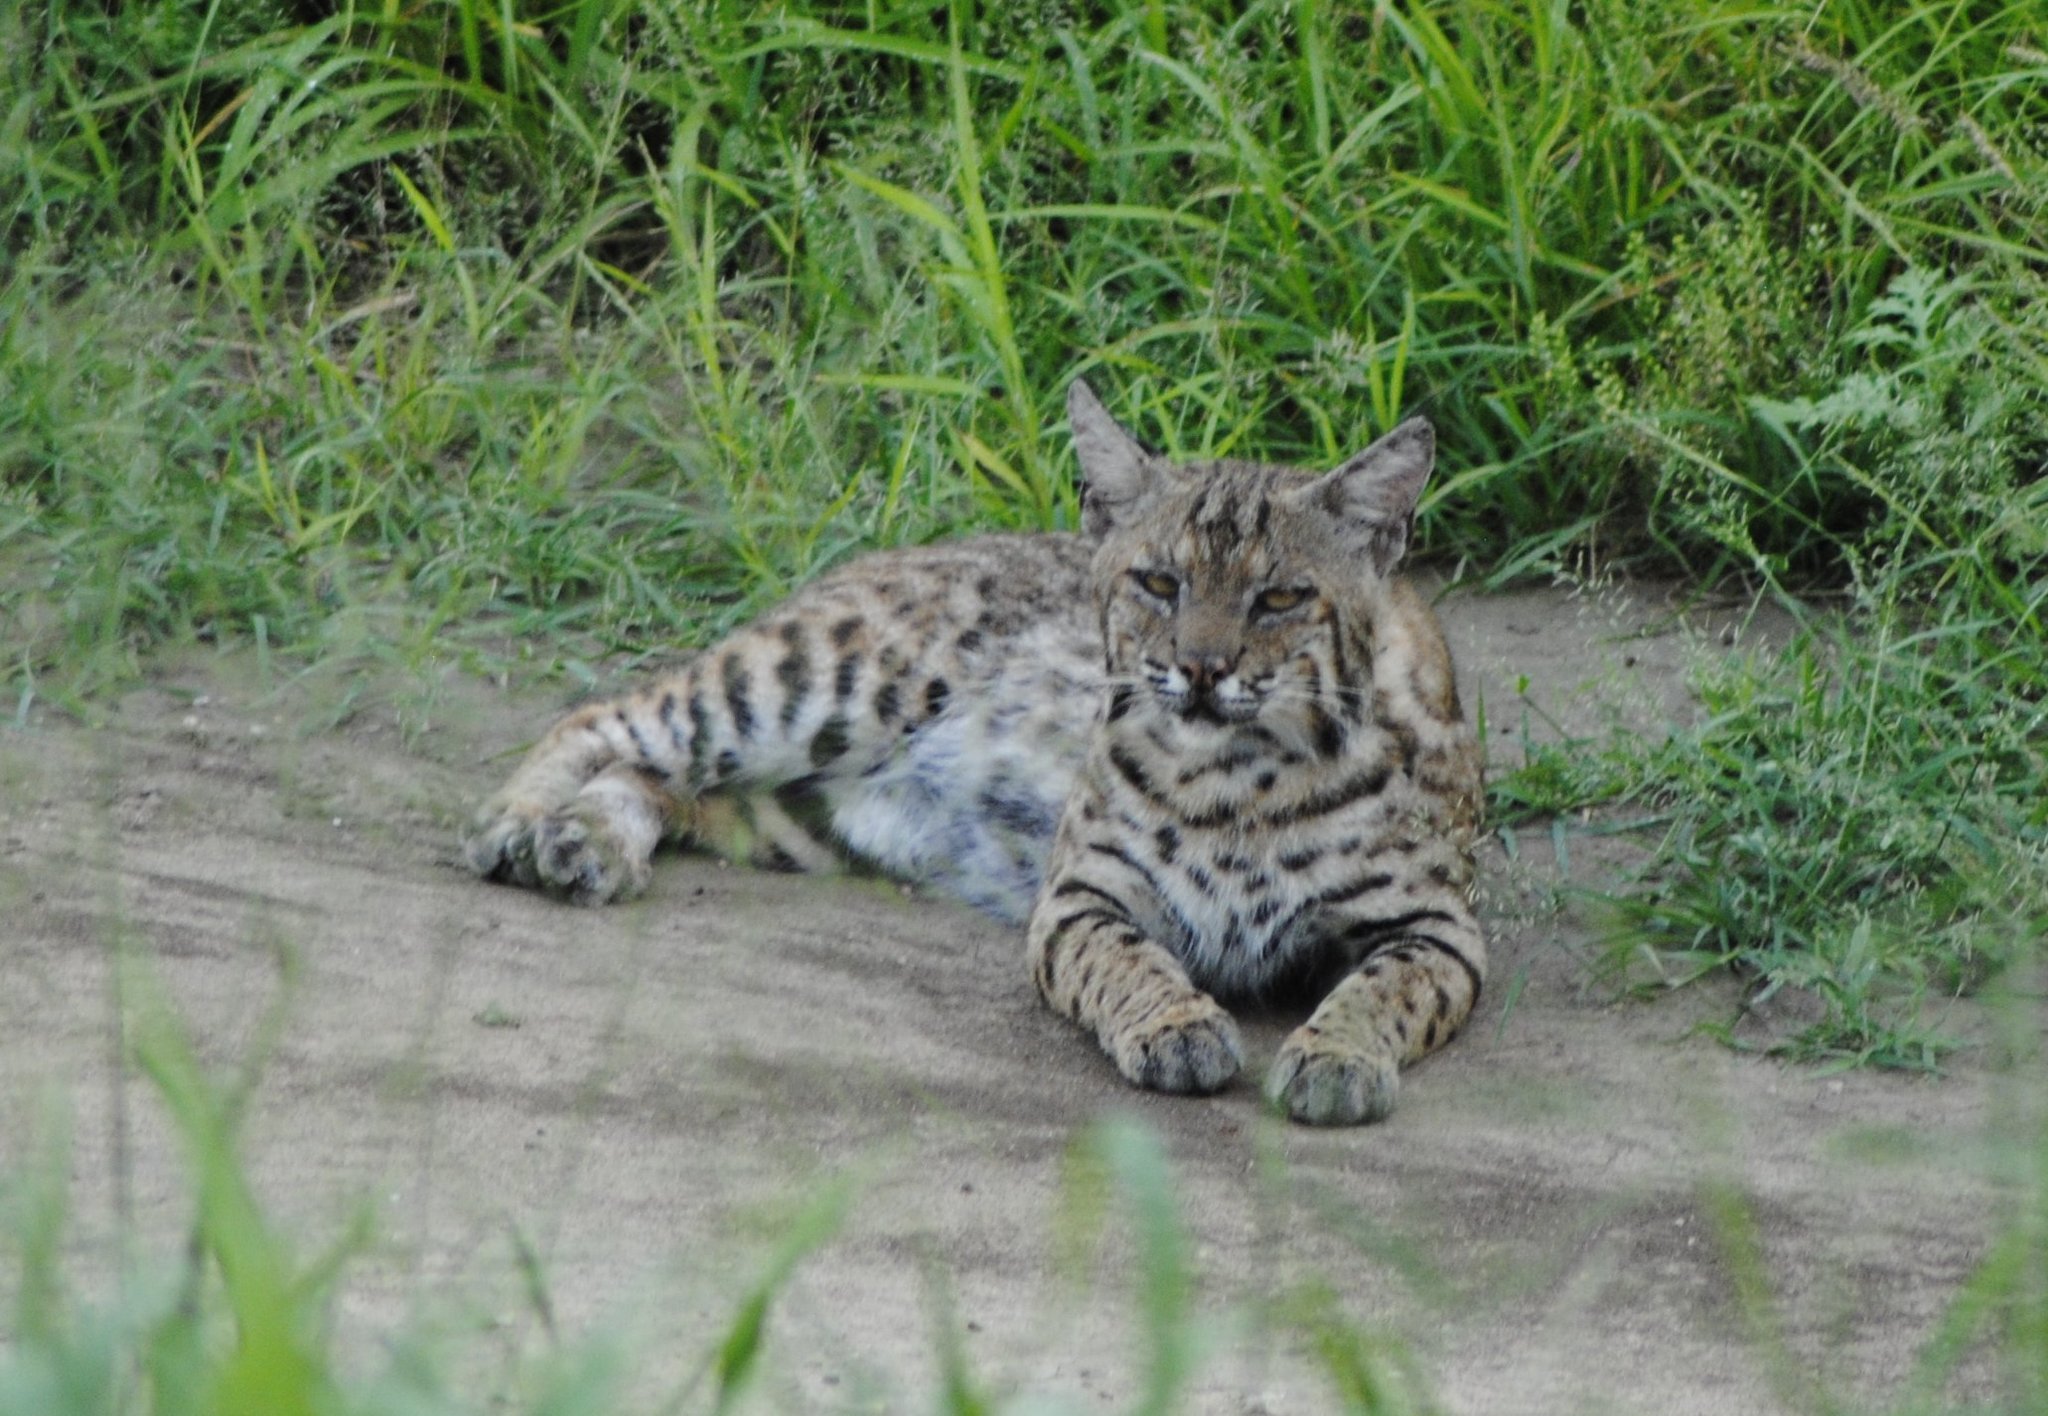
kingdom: Animalia
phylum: Chordata
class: Mammalia
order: Carnivora
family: Felidae
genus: Lynx
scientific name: Lynx rufus
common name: Bobcat
